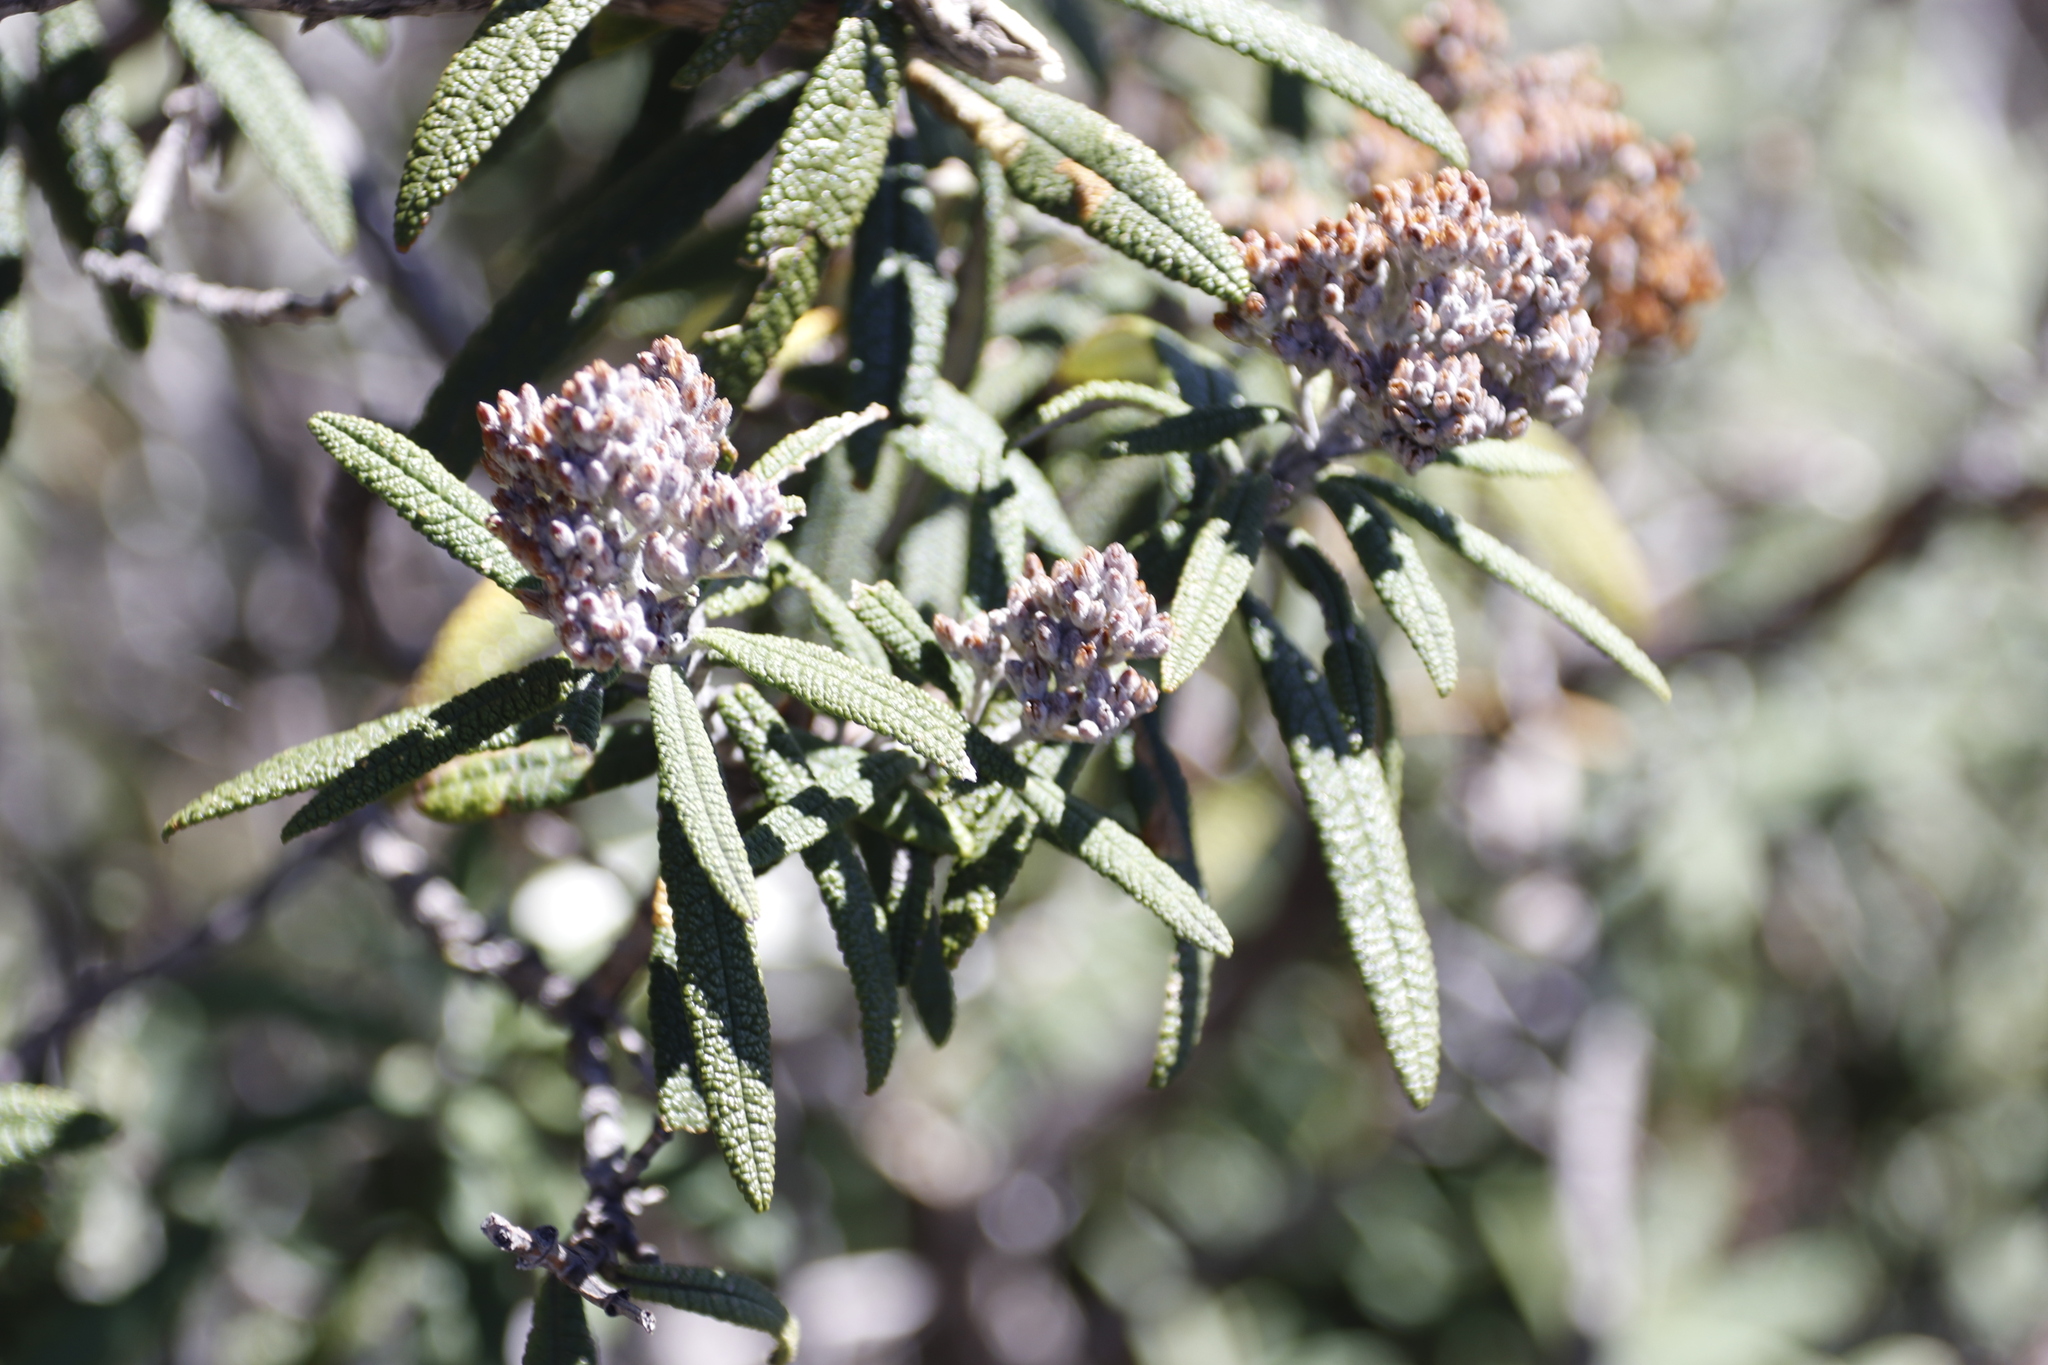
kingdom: Plantae
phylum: Tracheophyta
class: Magnoliopsida
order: Lamiales
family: Scrophulariaceae
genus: Buddleja
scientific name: Buddleja loricata
